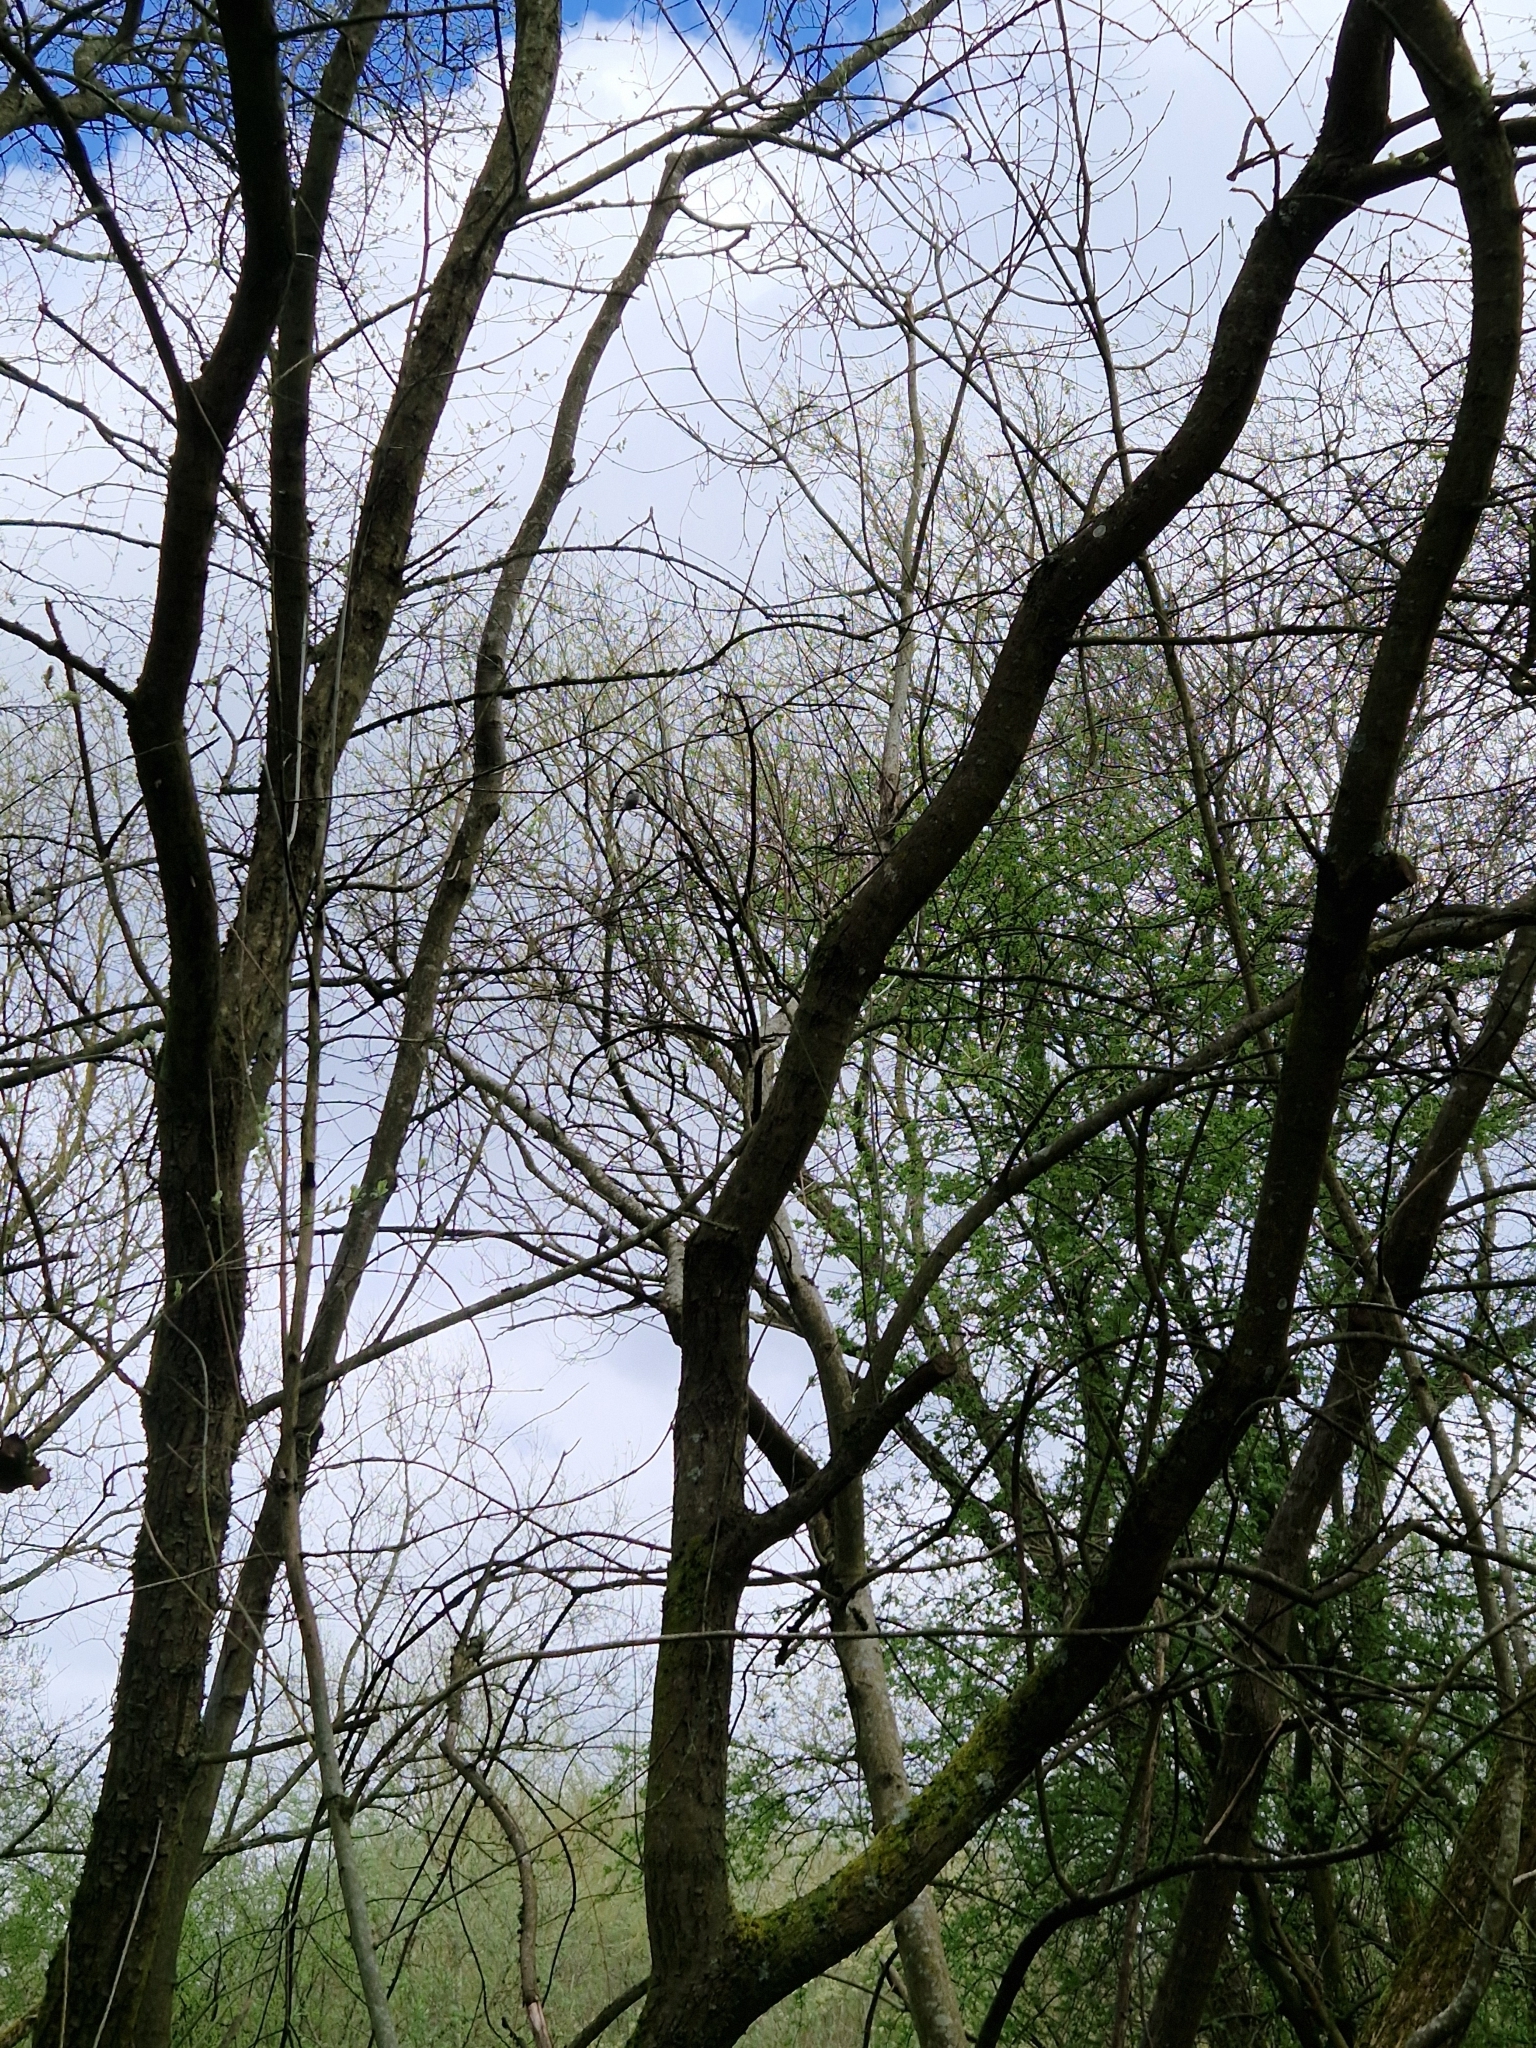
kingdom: Animalia
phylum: Chordata
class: Aves
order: Passeriformes
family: Aegithalidae
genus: Aegithalos
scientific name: Aegithalos caudatus
